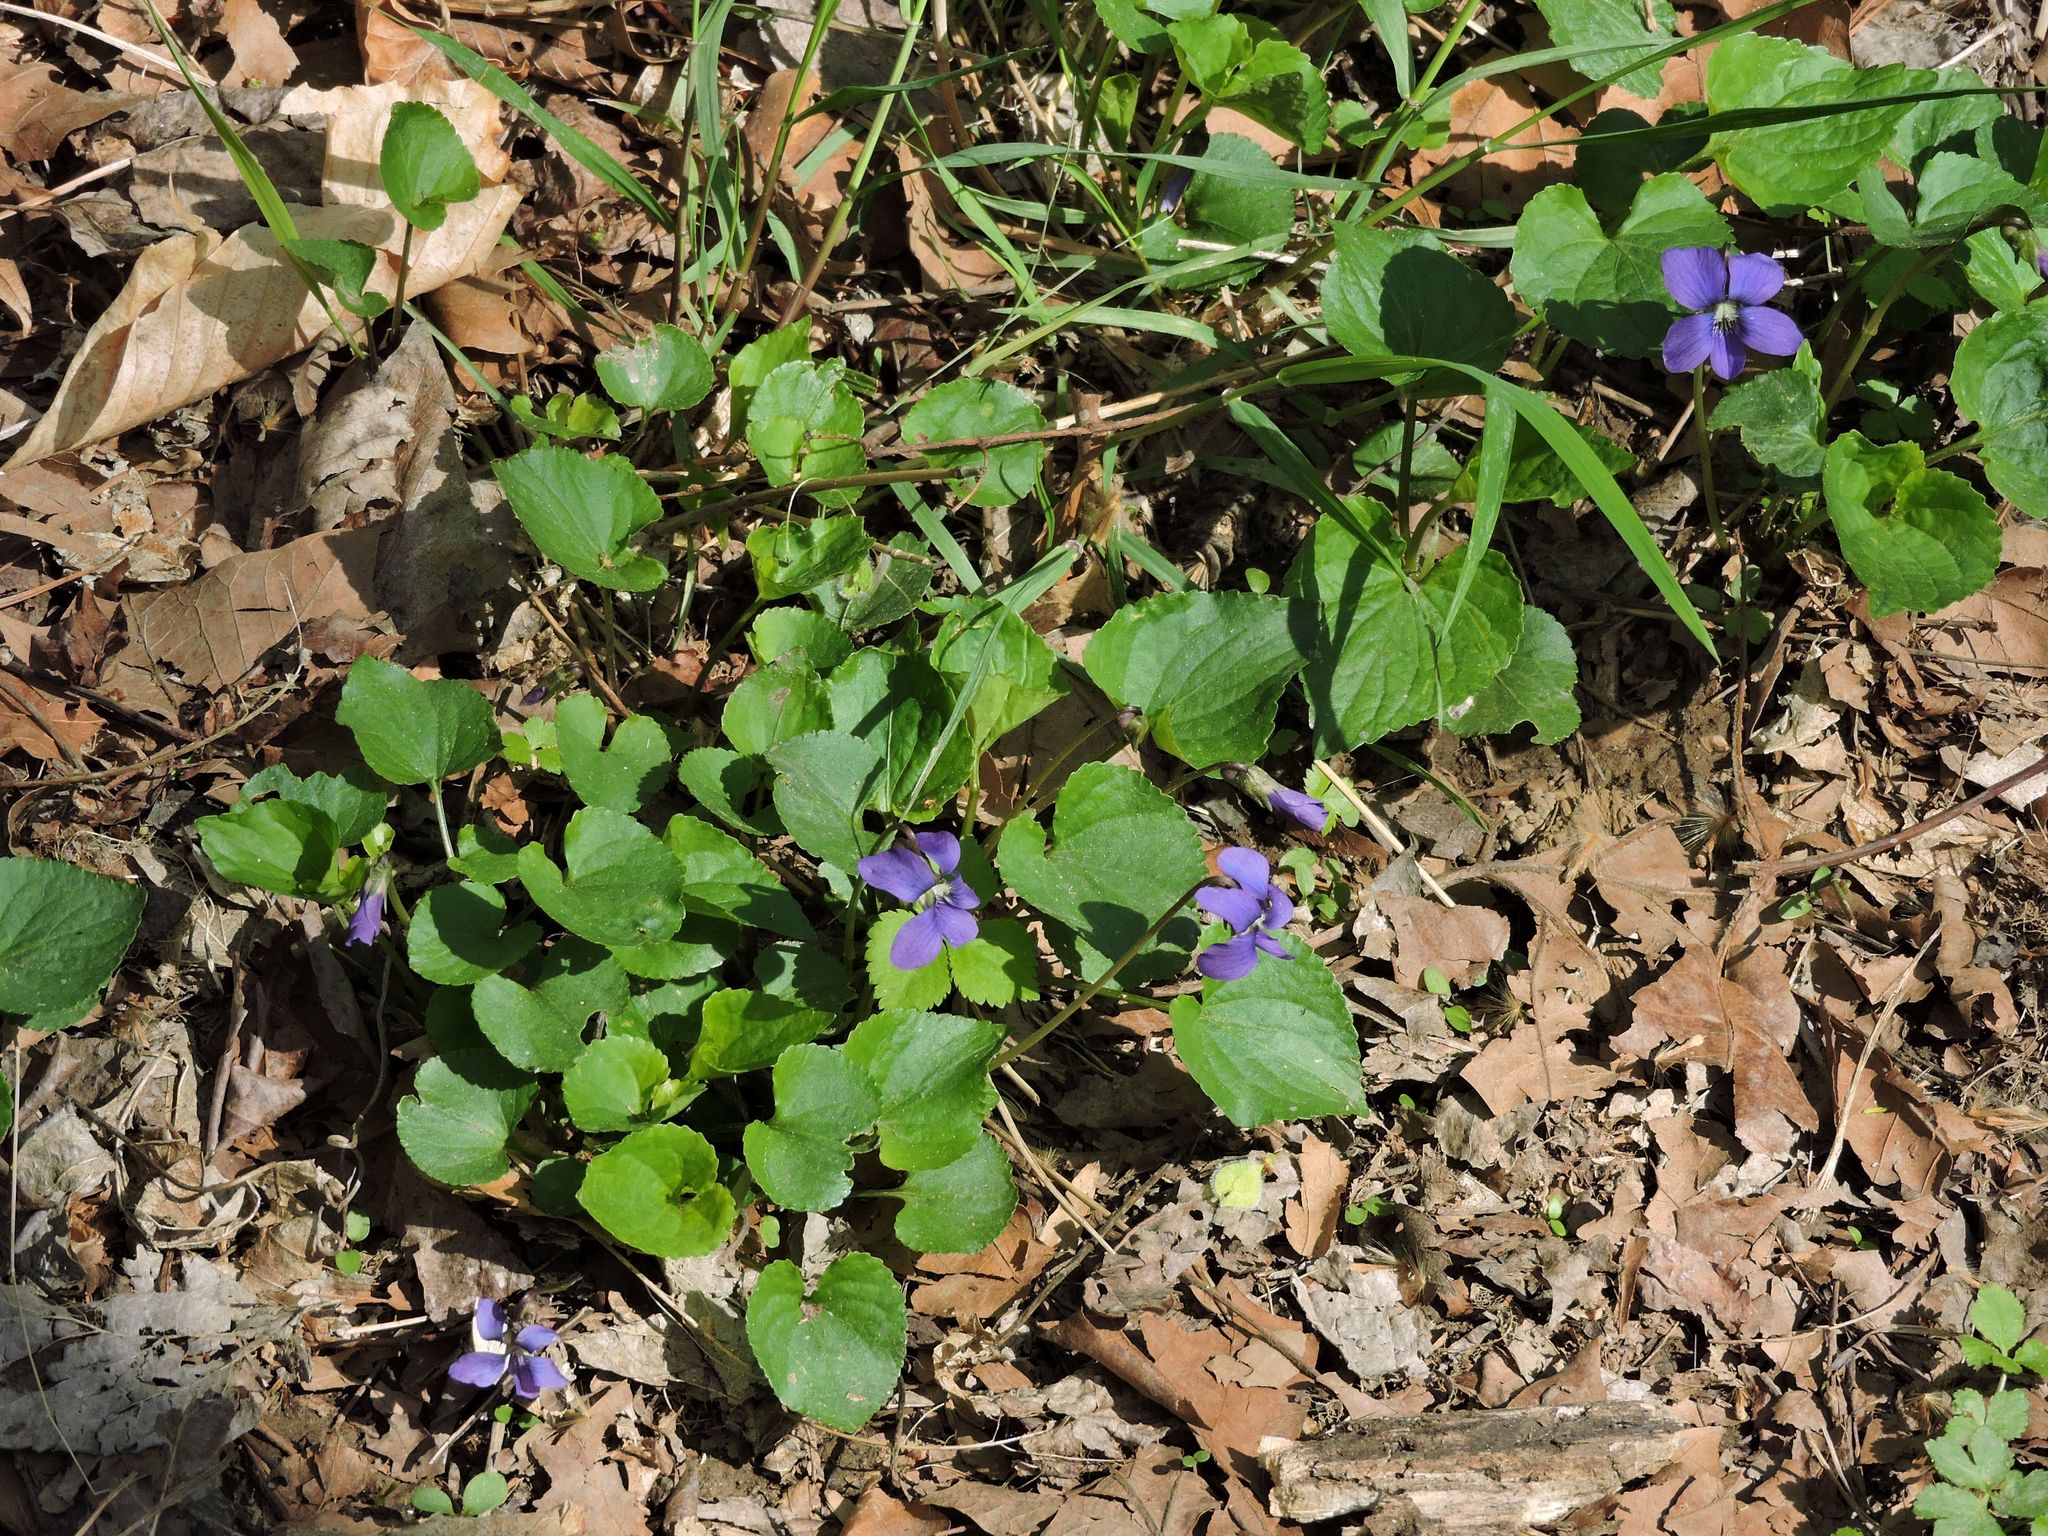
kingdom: Plantae
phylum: Tracheophyta
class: Magnoliopsida
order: Malpighiales
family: Violaceae
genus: Viola
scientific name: Viola sororia
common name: Dooryard violet
